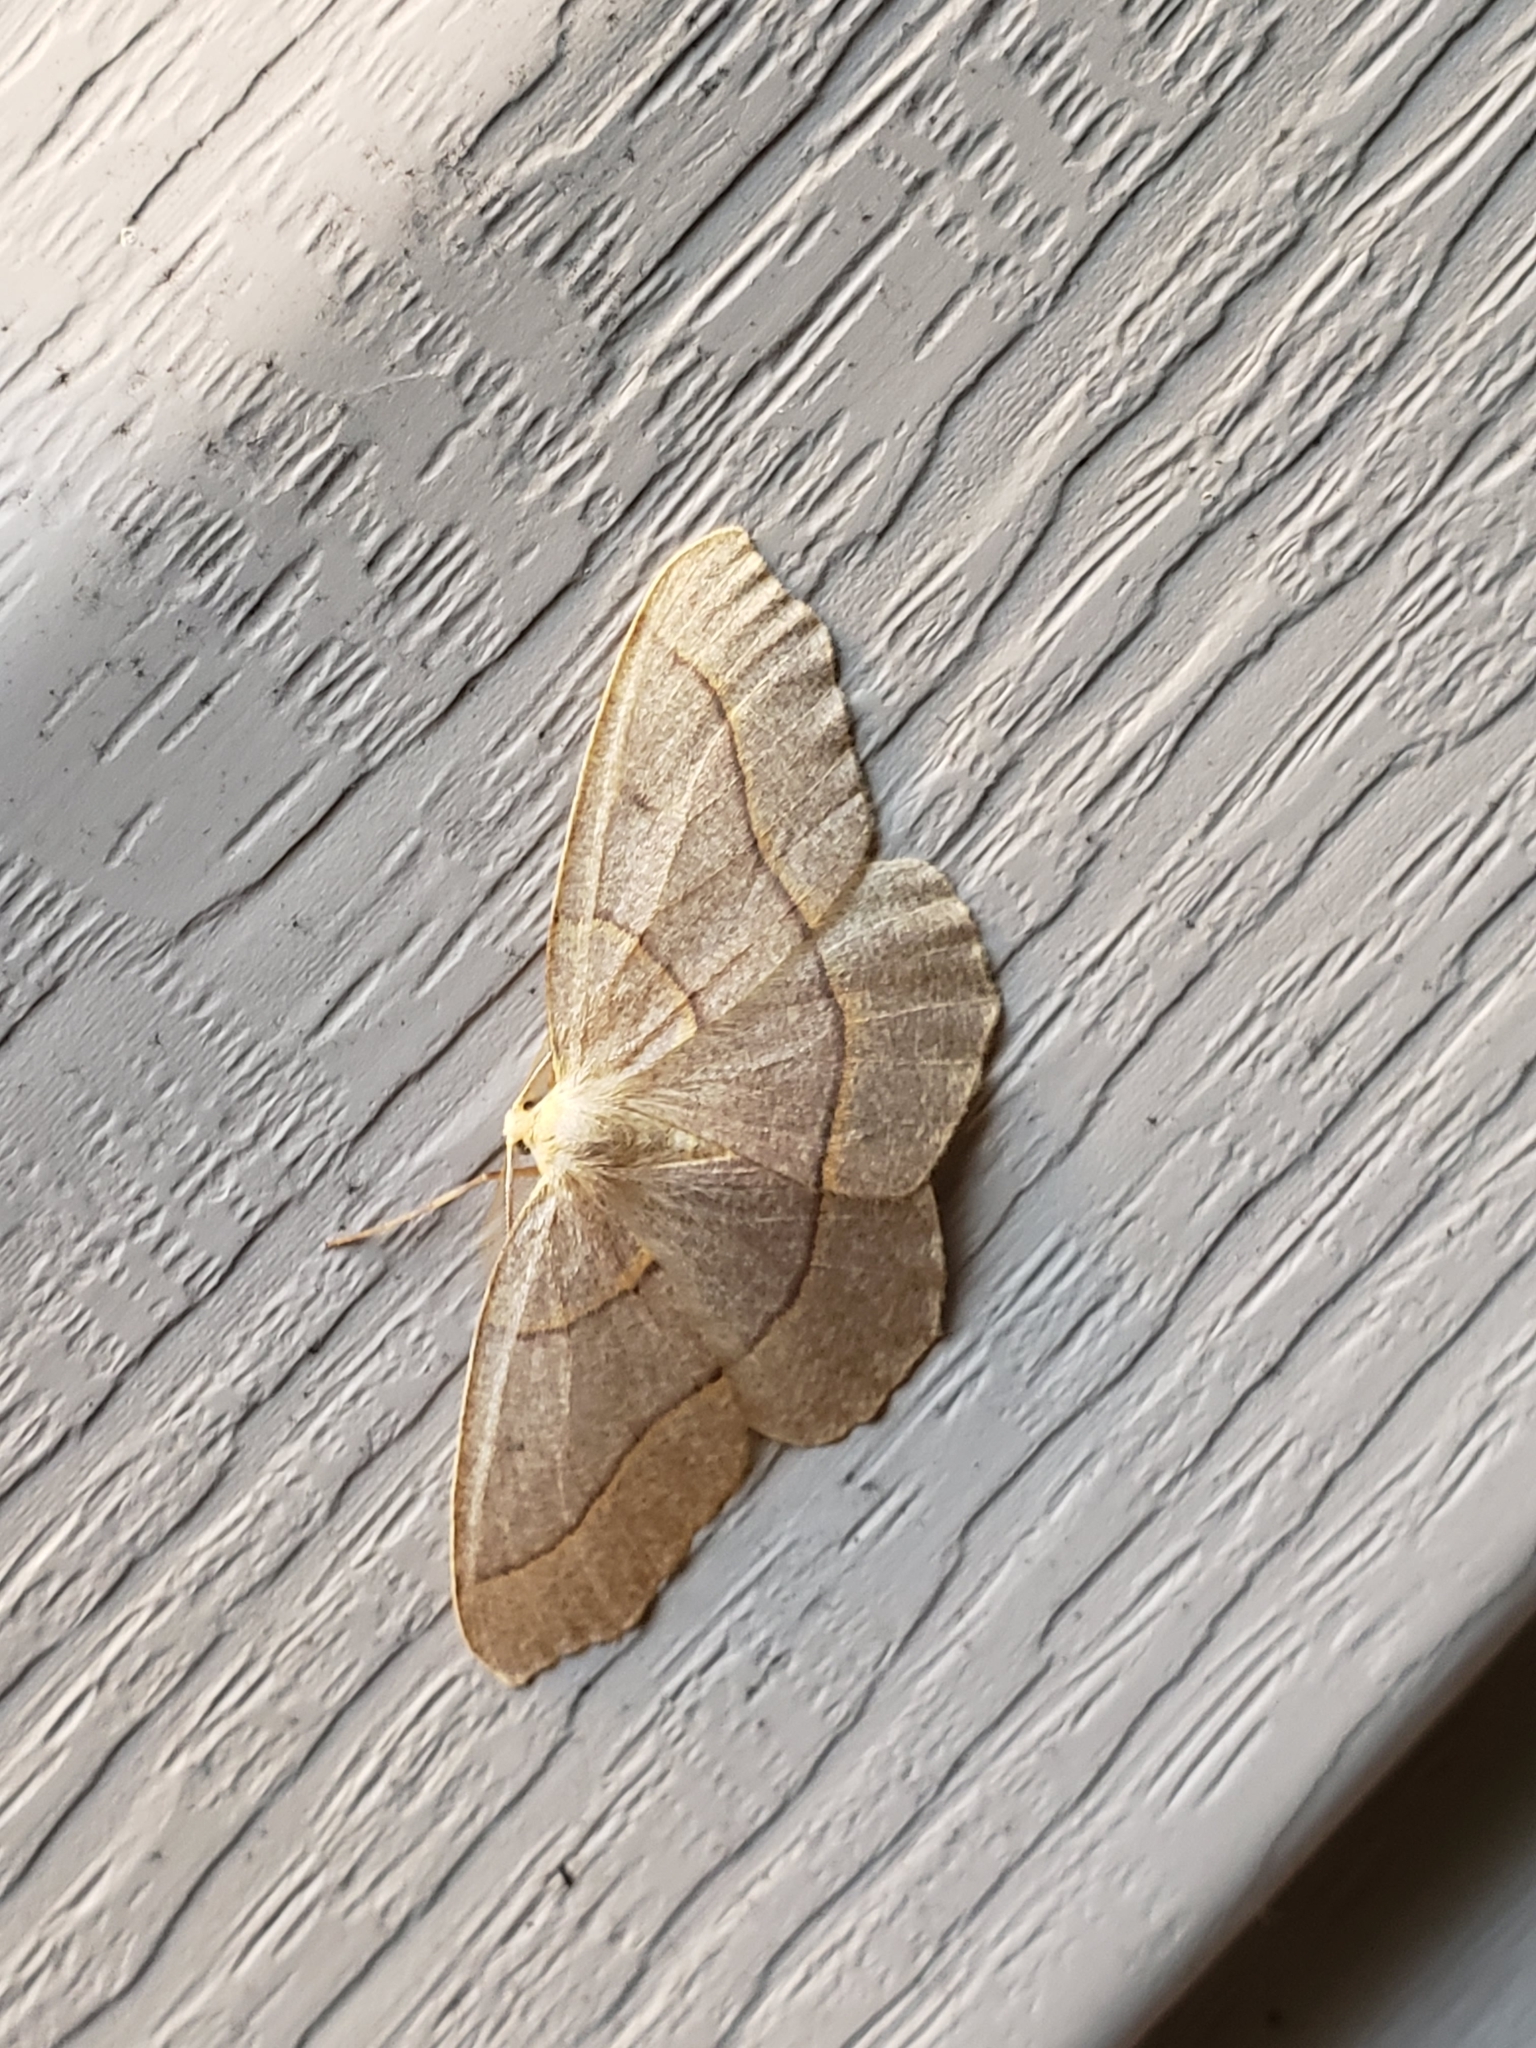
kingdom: Animalia
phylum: Arthropoda
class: Insecta
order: Lepidoptera
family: Geometridae
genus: Lambdina
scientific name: Lambdina fiscellaria
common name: Hemlock looper
